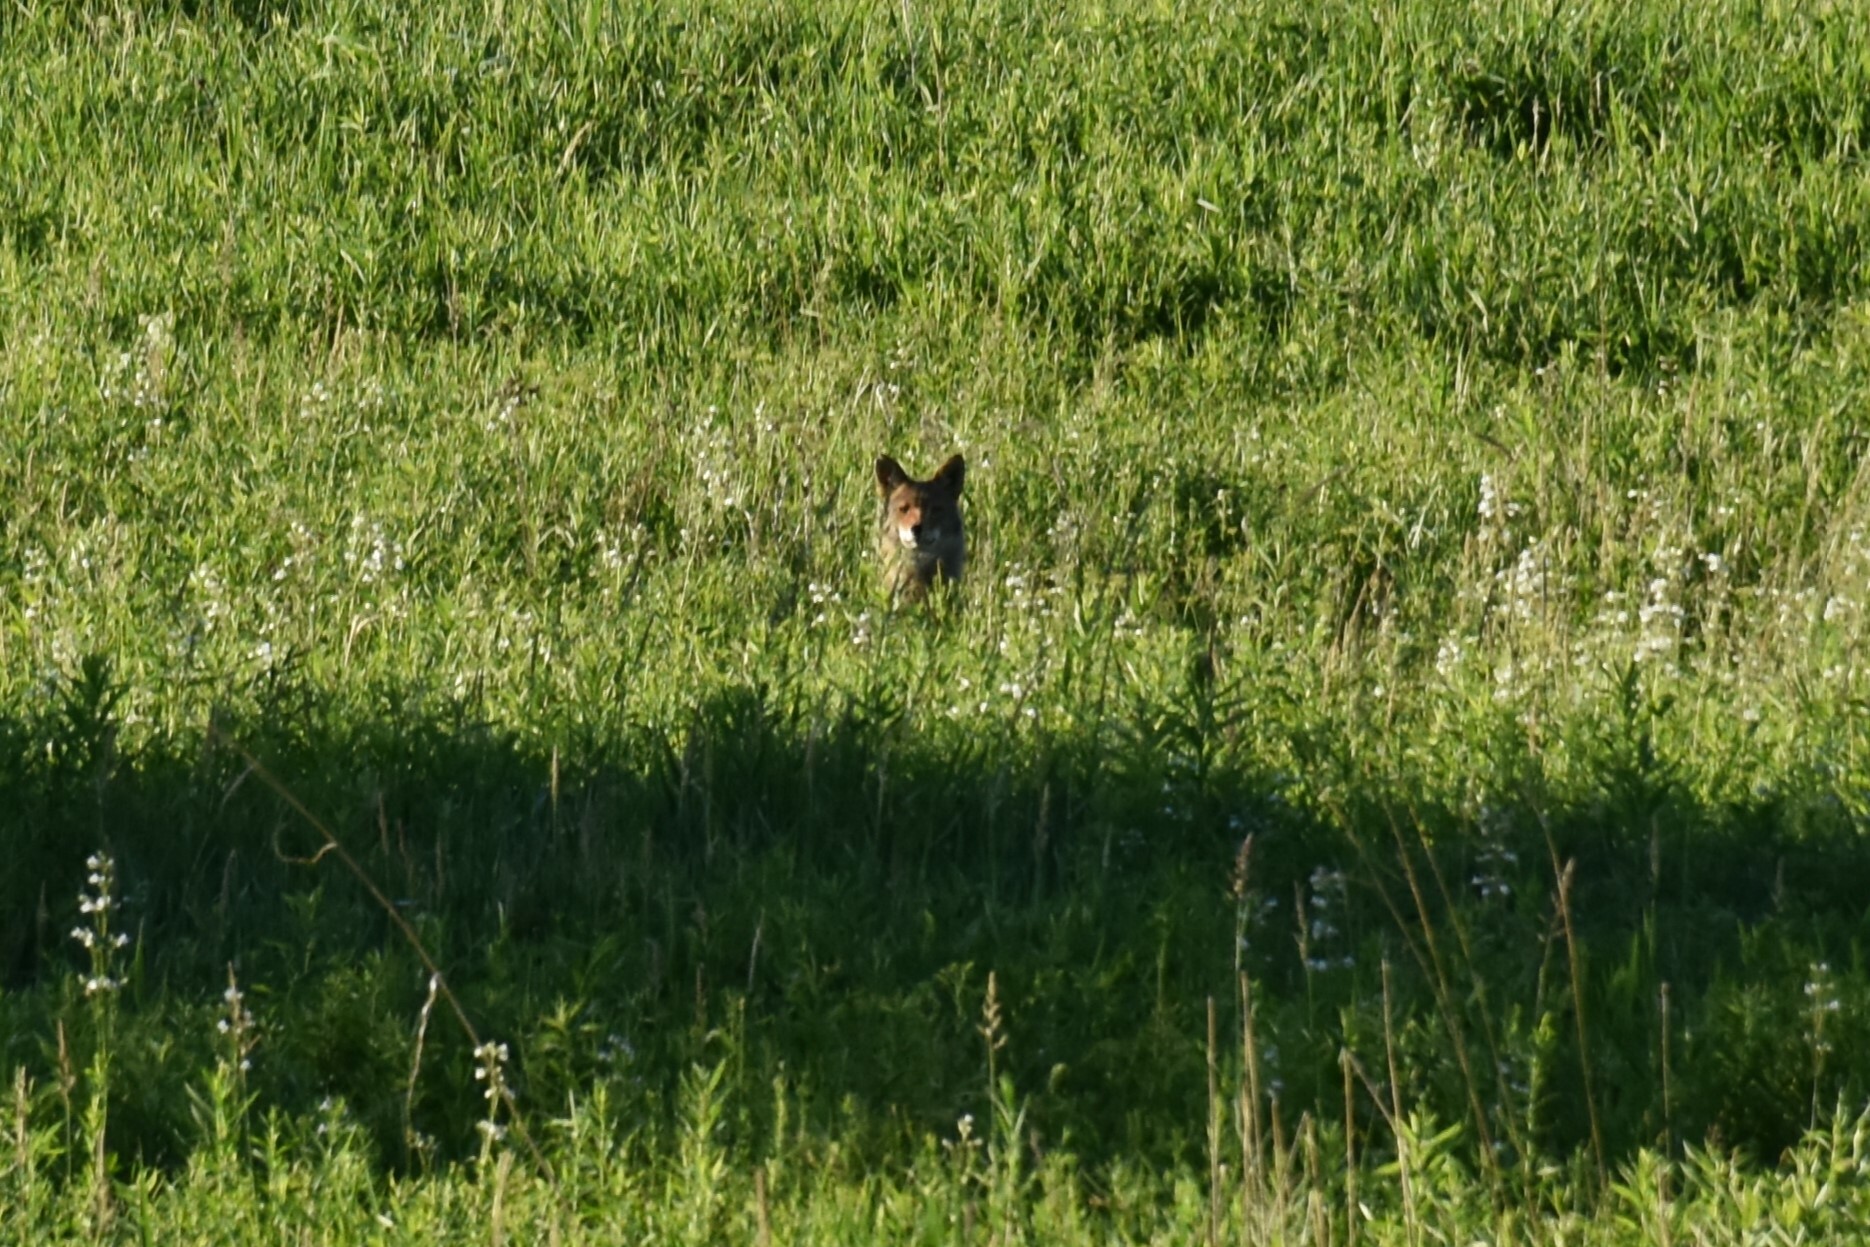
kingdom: Animalia
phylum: Chordata
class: Mammalia
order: Carnivora
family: Canidae
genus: Canis
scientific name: Canis latrans
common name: Coyote
